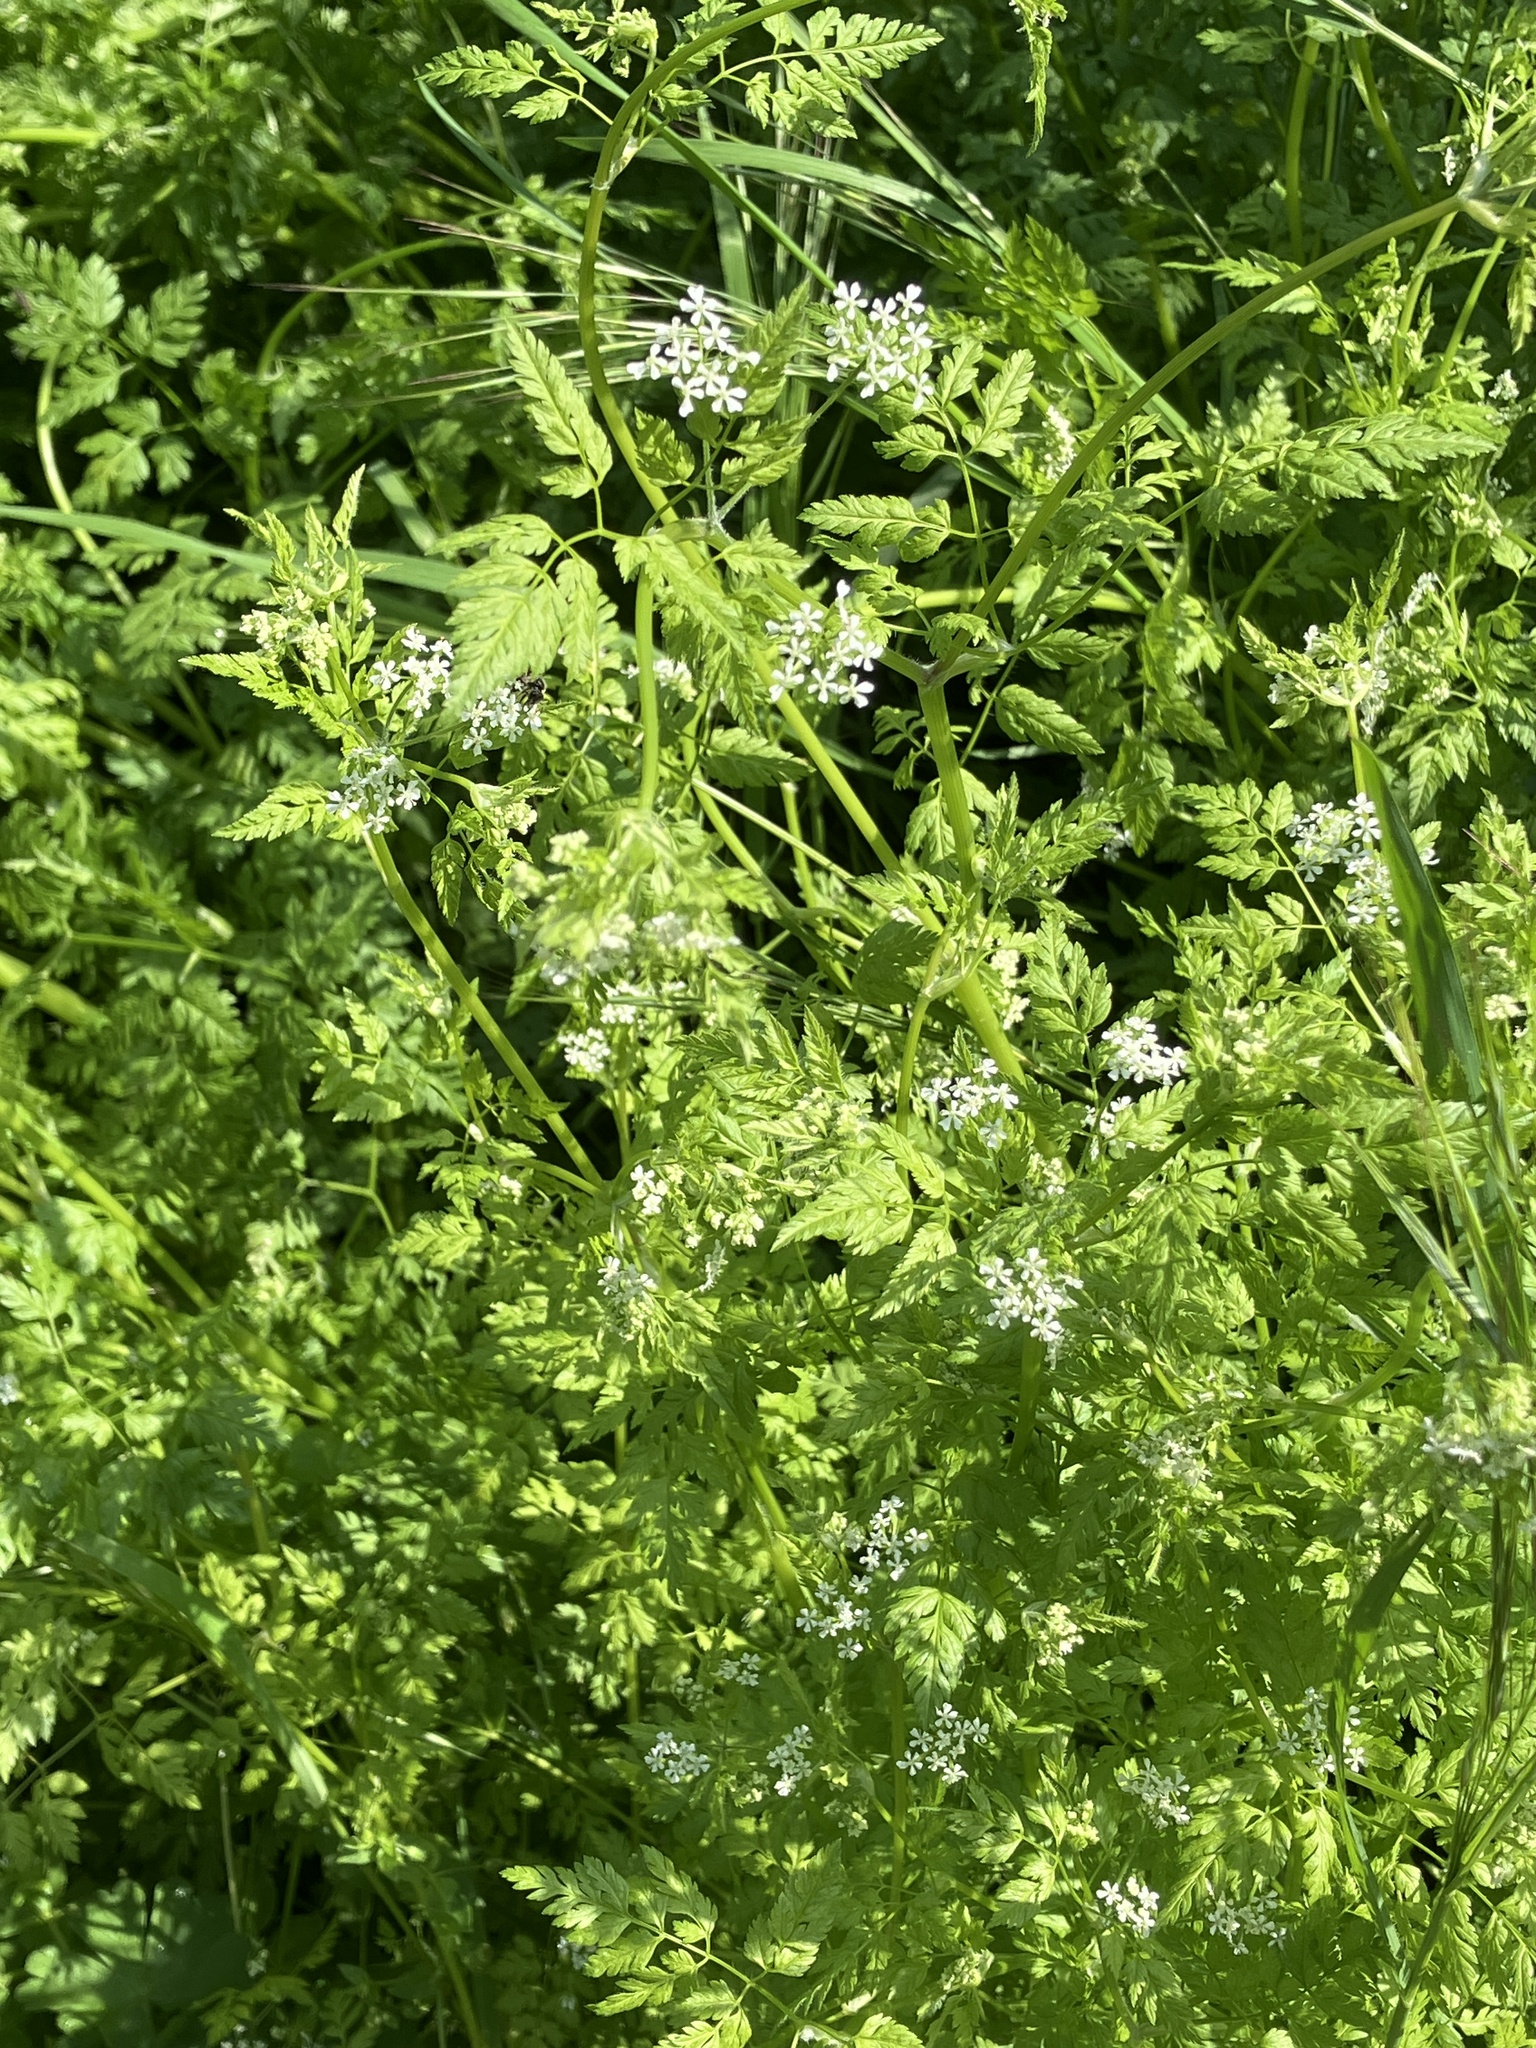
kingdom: Plantae
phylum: Tracheophyta
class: Magnoliopsida
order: Apiales
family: Apiaceae
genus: Anthriscus
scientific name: Anthriscus cerefolium
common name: Garden chervil
